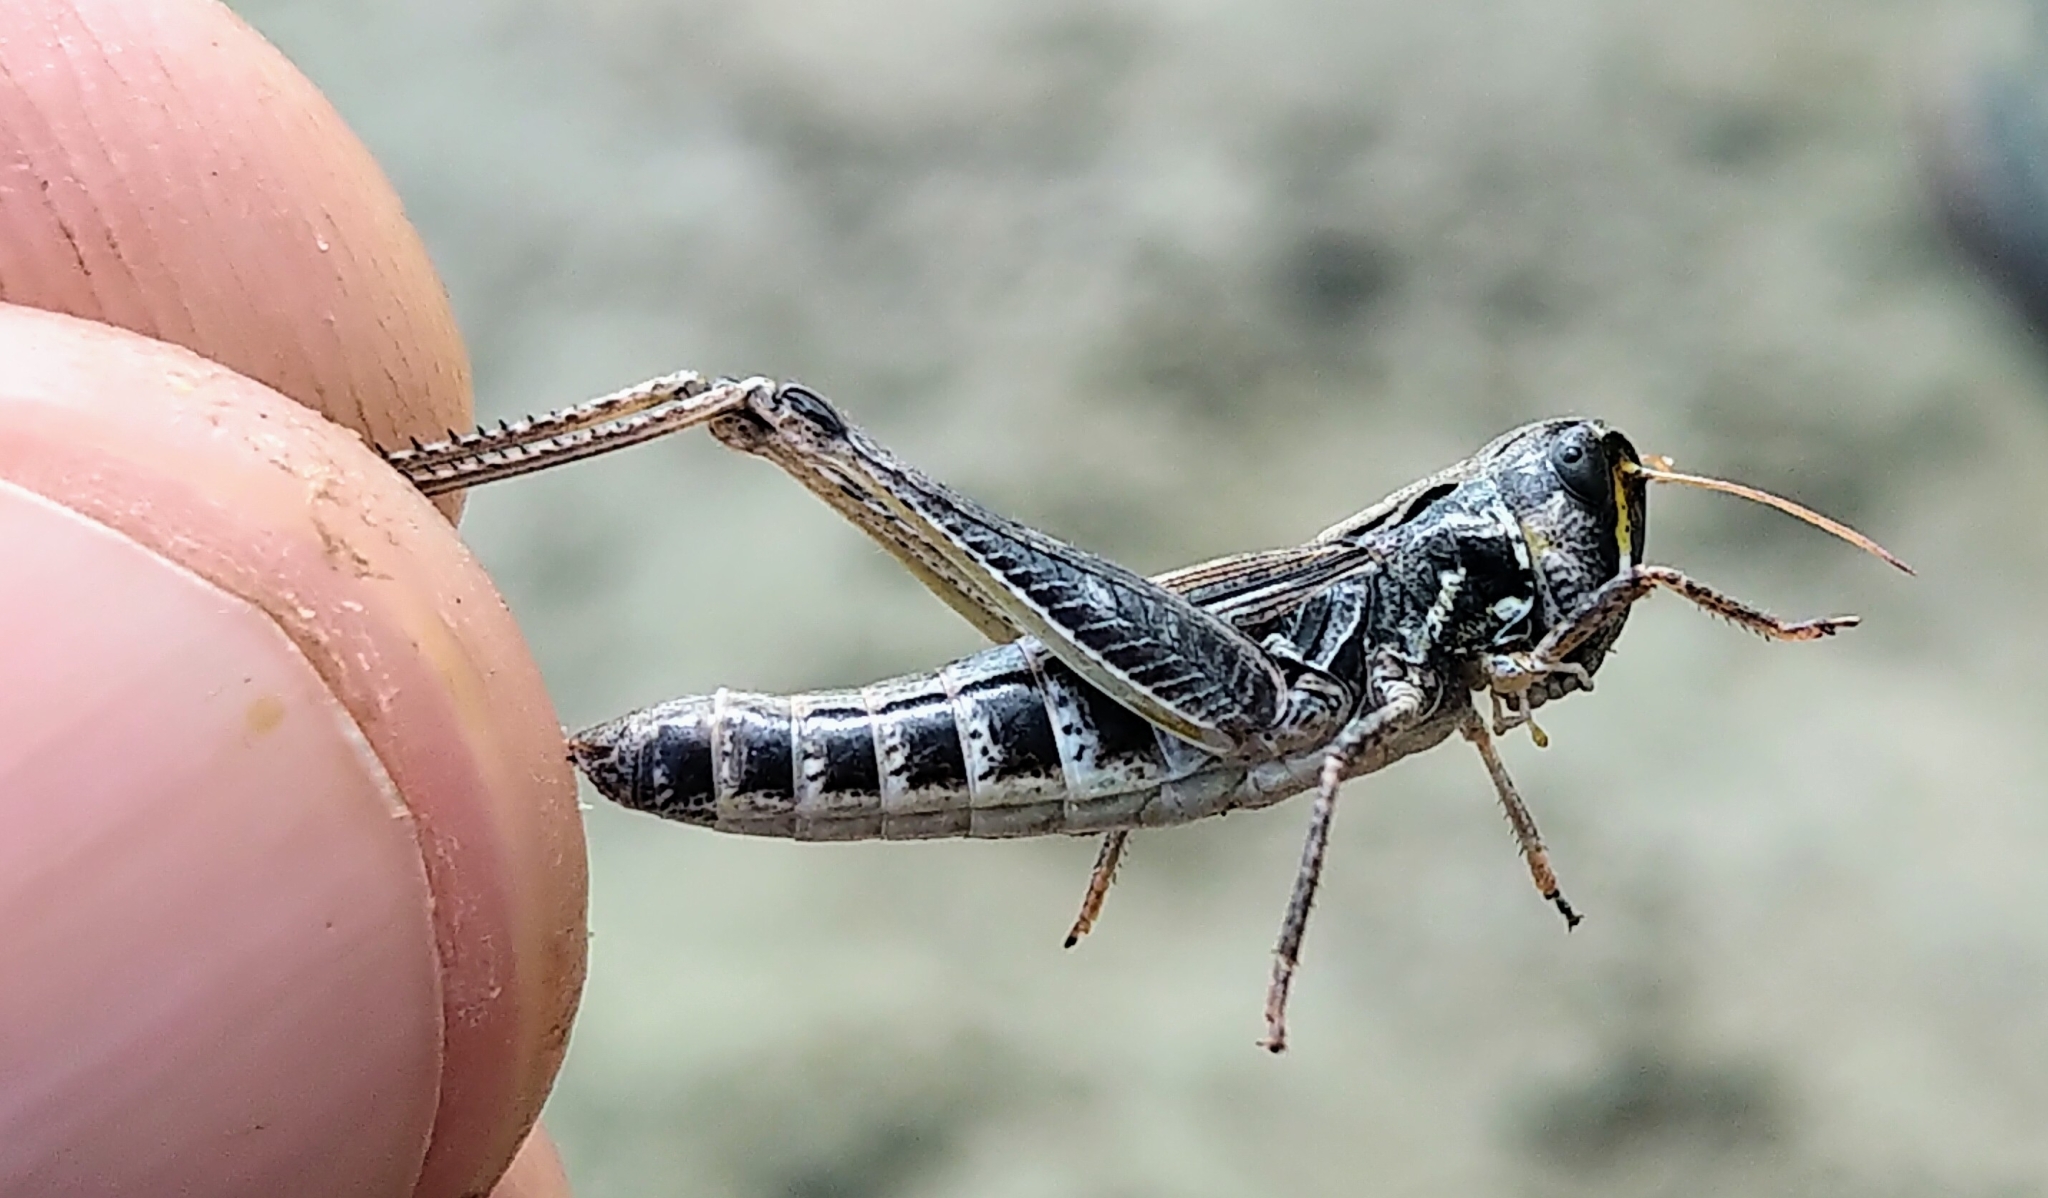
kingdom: Animalia
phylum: Arthropoda
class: Insecta
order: Orthoptera
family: Acrididae
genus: Aeropedellus
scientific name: Aeropedellus clavatus
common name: Clubhorned grasshopper
